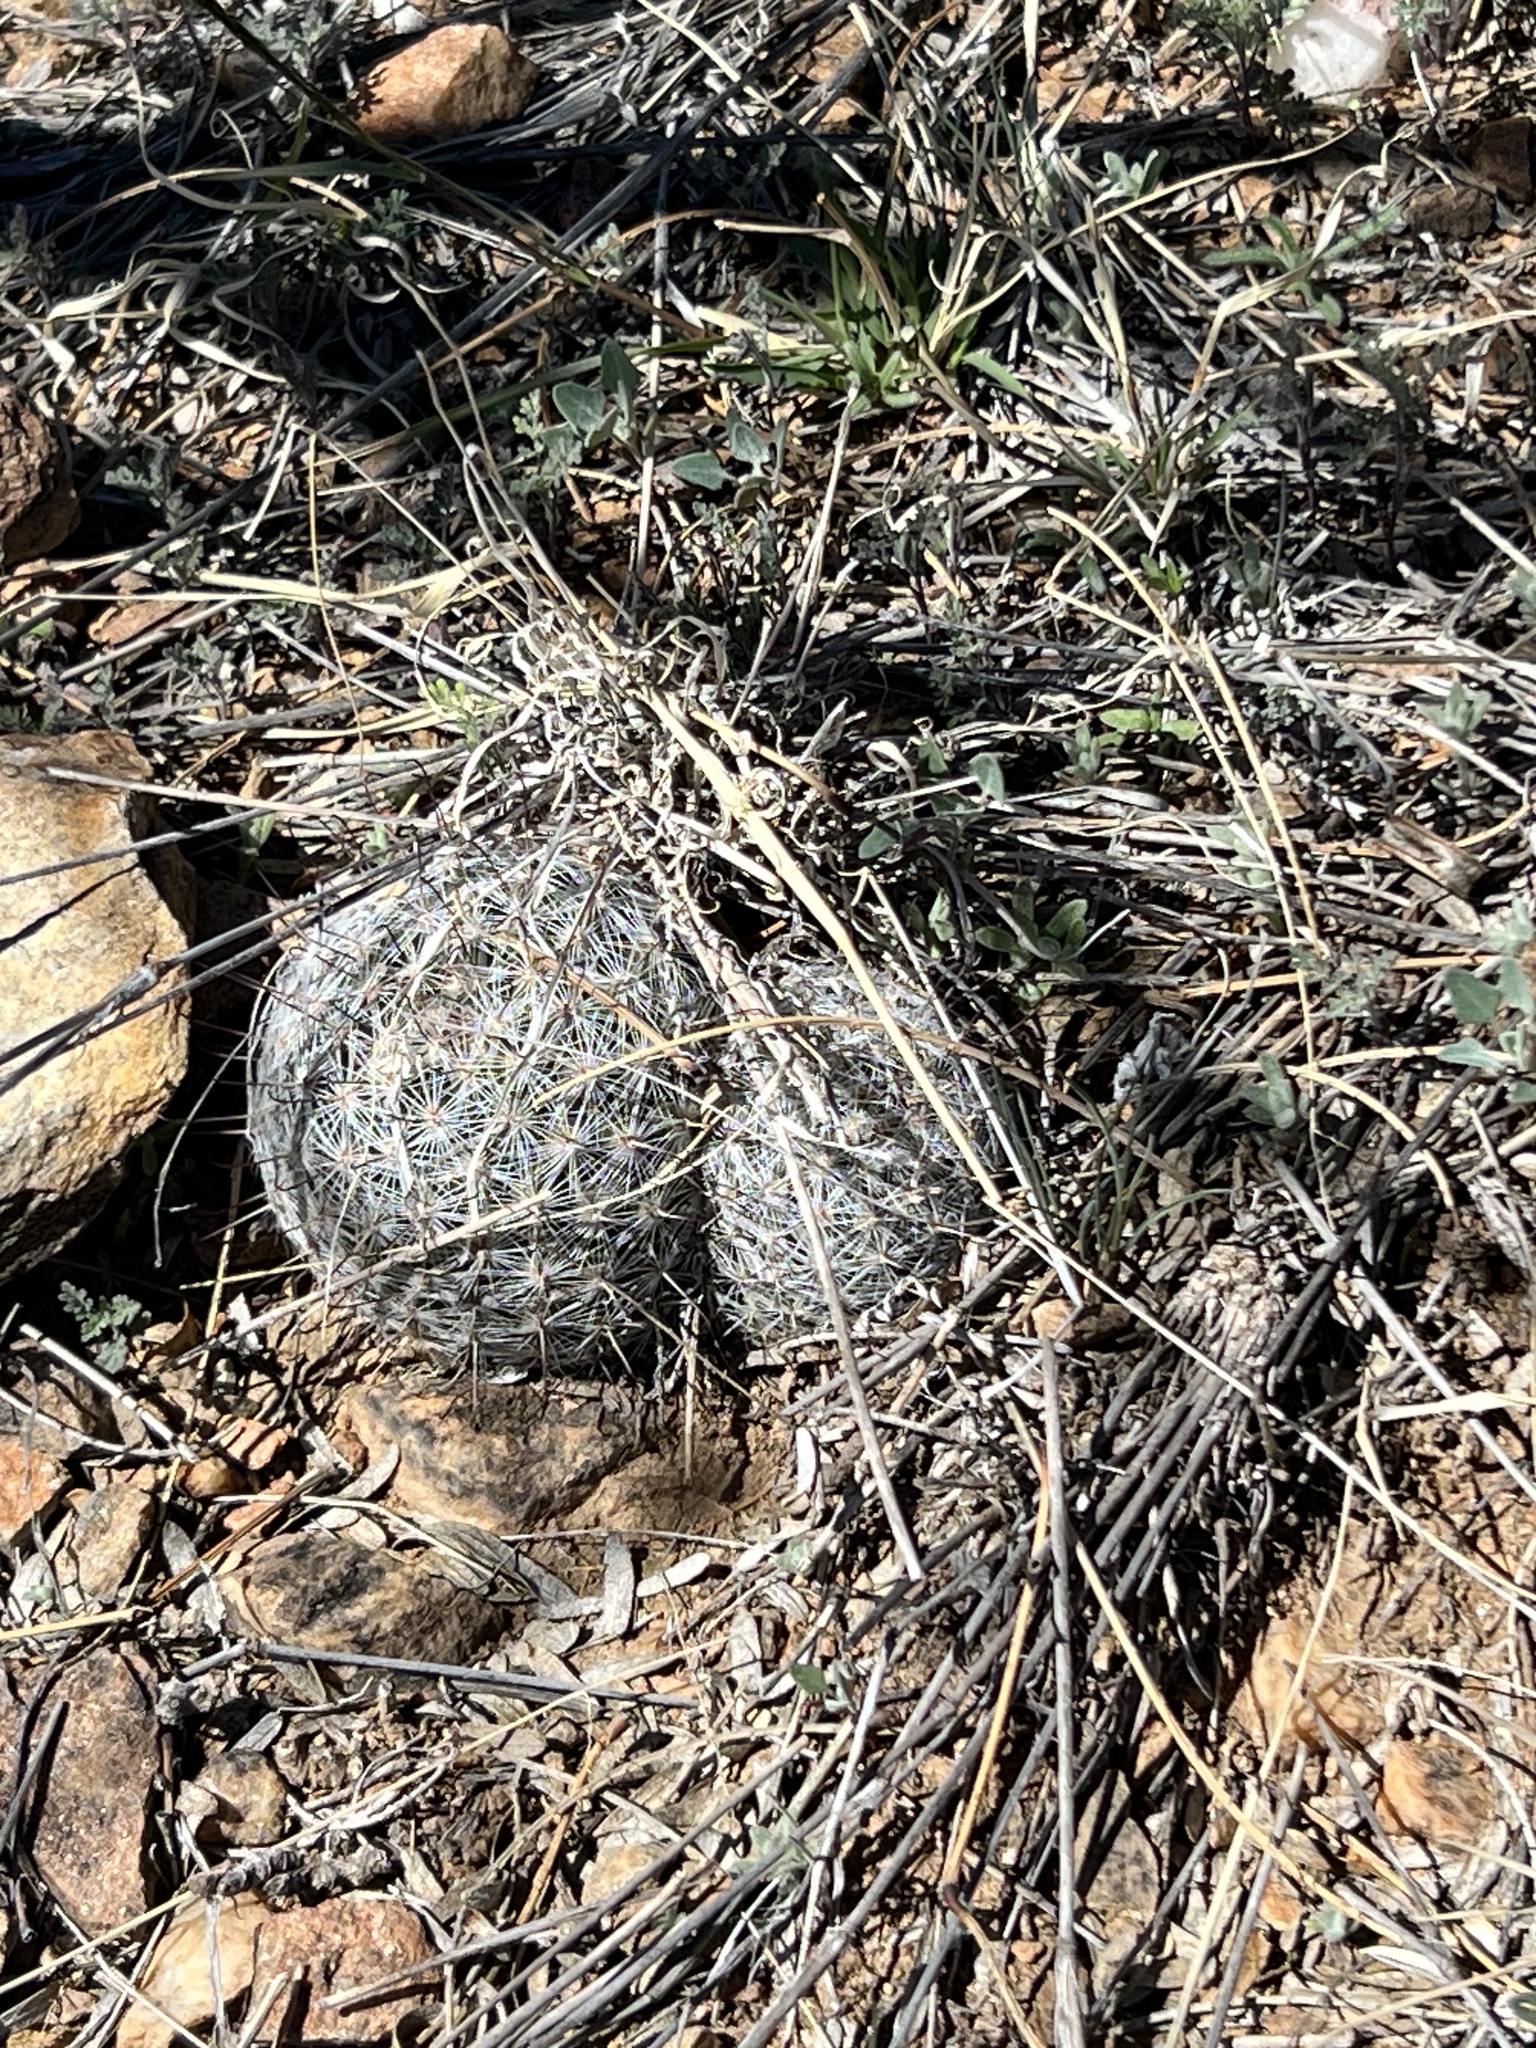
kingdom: Plantae
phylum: Tracheophyta
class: Magnoliopsida
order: Caryophyllales
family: Cactaceae
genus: Cochemiea
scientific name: Cochemiea grahamii
